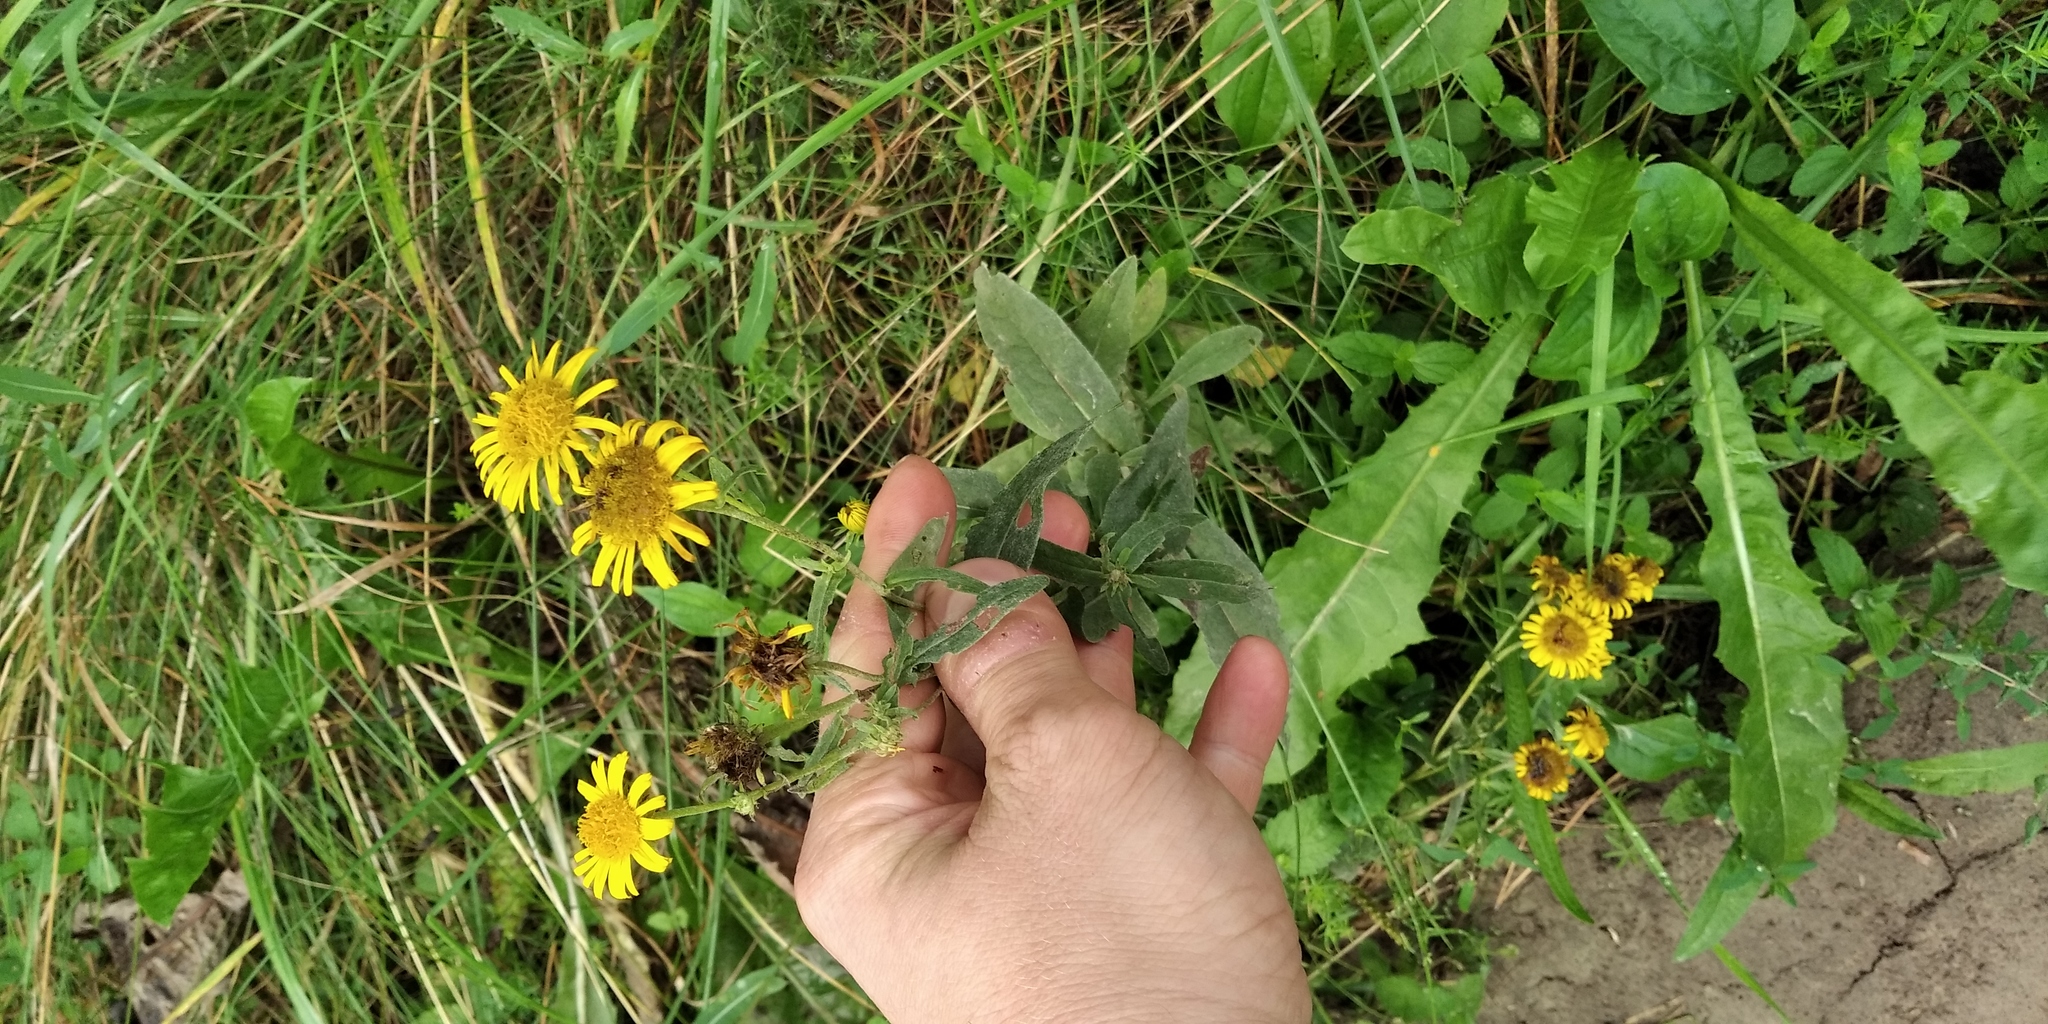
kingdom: Plantae
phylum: Tracheophyta
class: Magnoliopsida
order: Asterales
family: Asteraceae
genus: Pentanema
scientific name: Pentanema britannicum
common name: British elecampane
